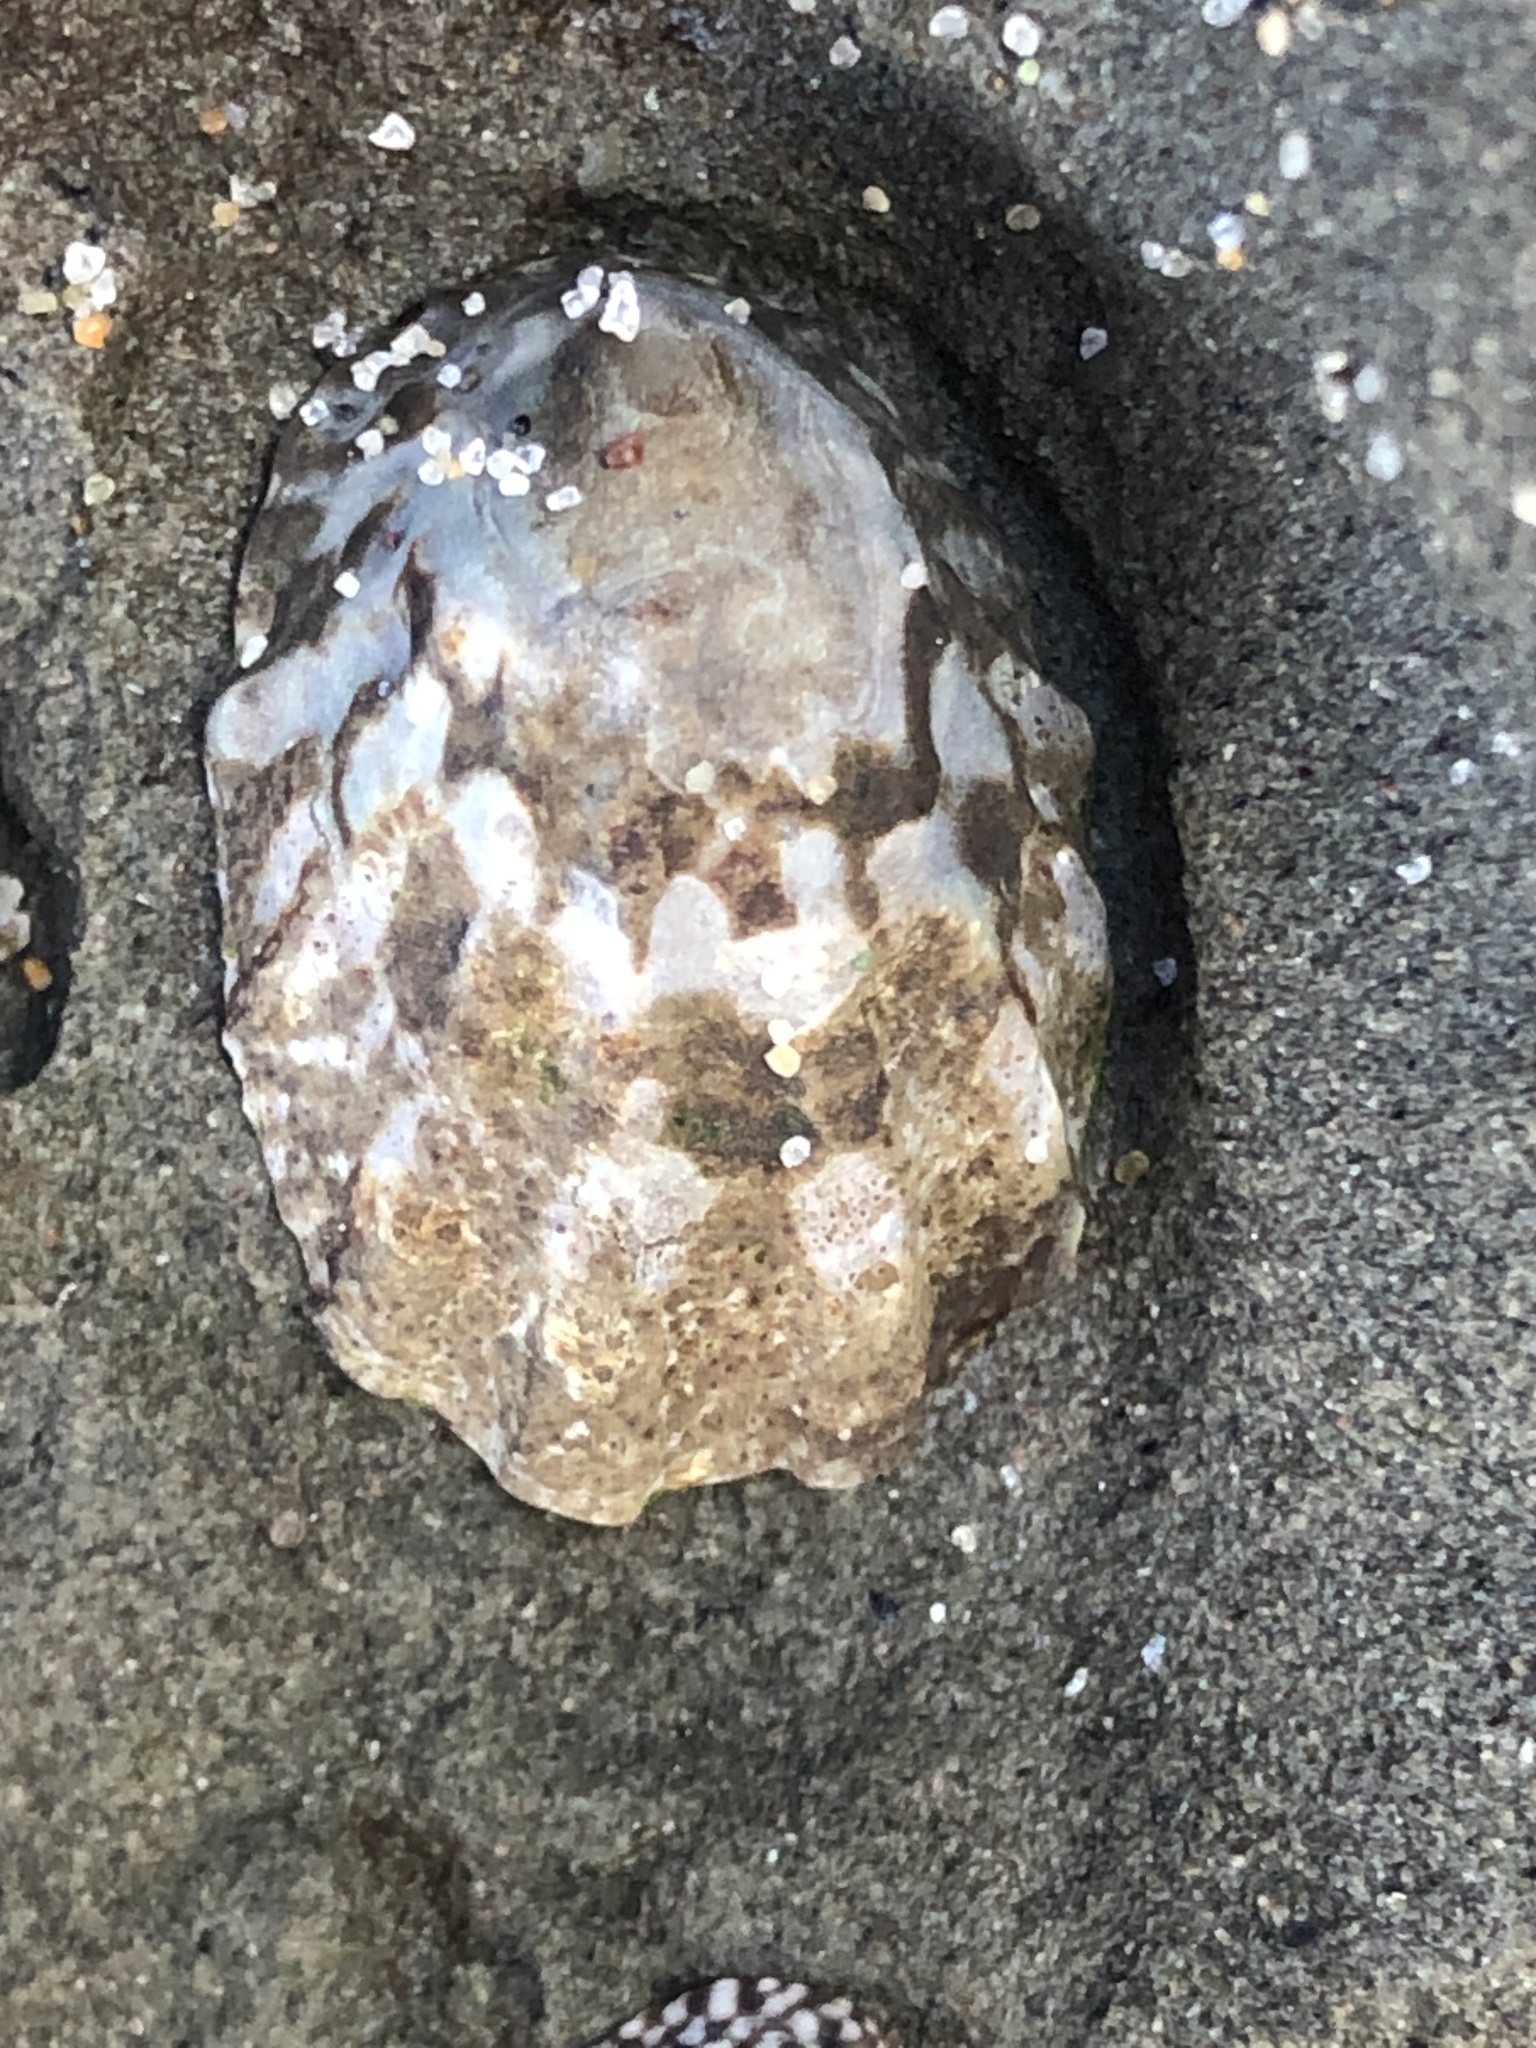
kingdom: Animalia
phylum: Mollusca
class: Gastropoda
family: Lottiidae
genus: Lottia
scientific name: Lottia digitalis
